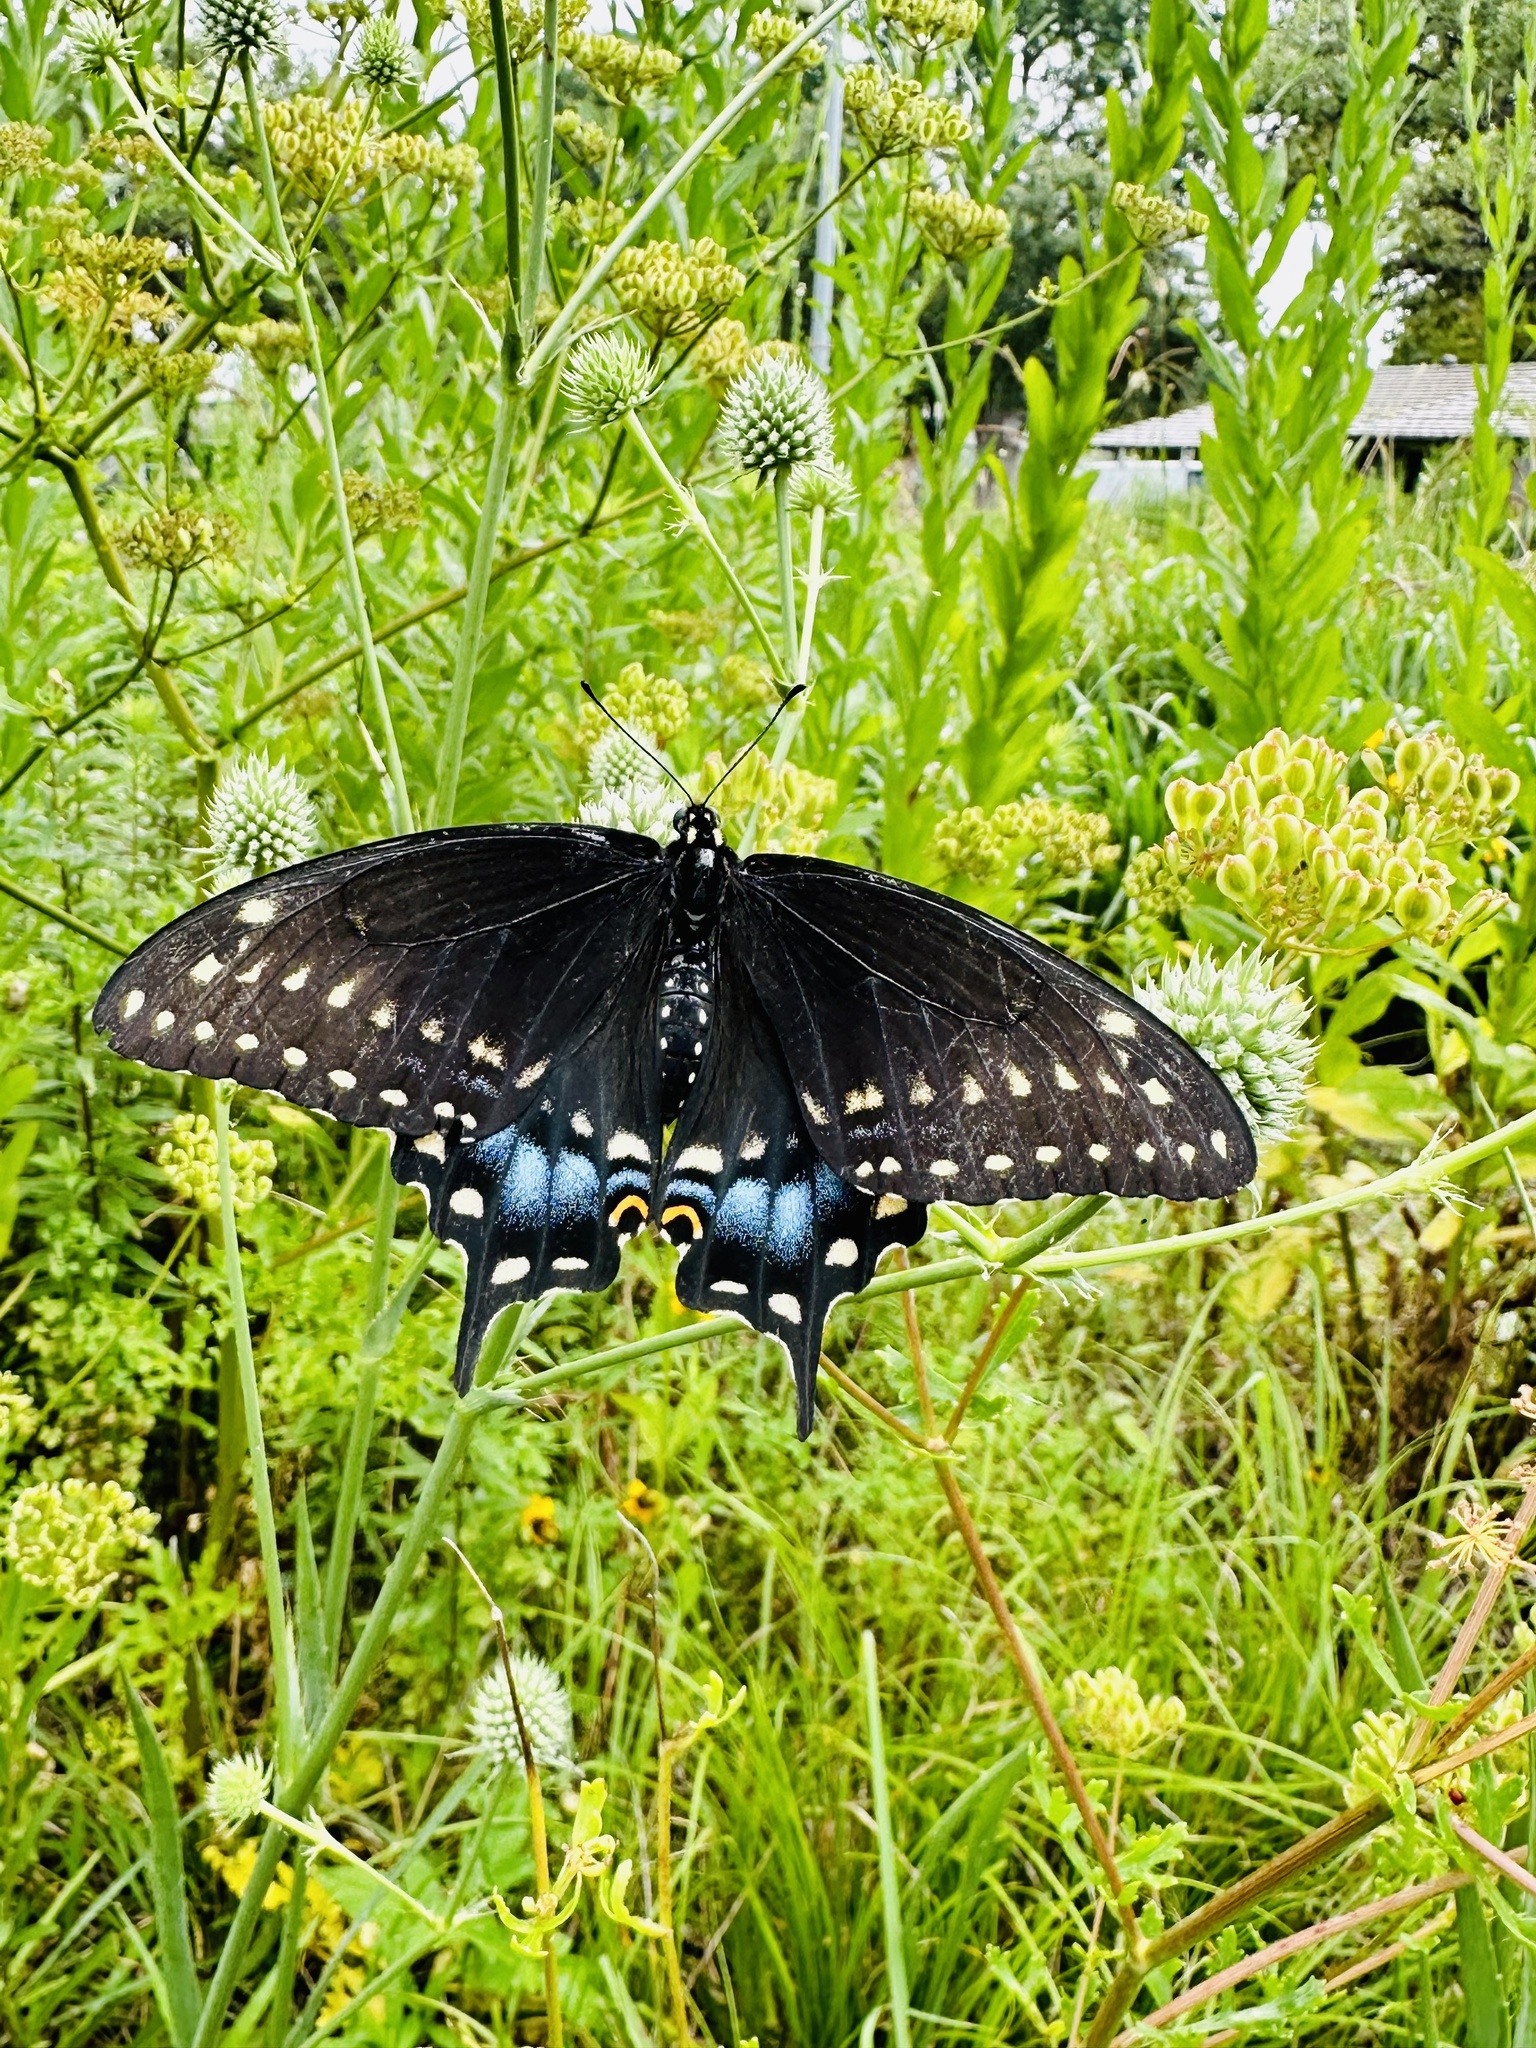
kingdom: Animalia
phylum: Arthropoda
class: Insecta
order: Lepidoptera
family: Papilionidae
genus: Papilio
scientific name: Papilio polyxenes
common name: Black swallowtail
